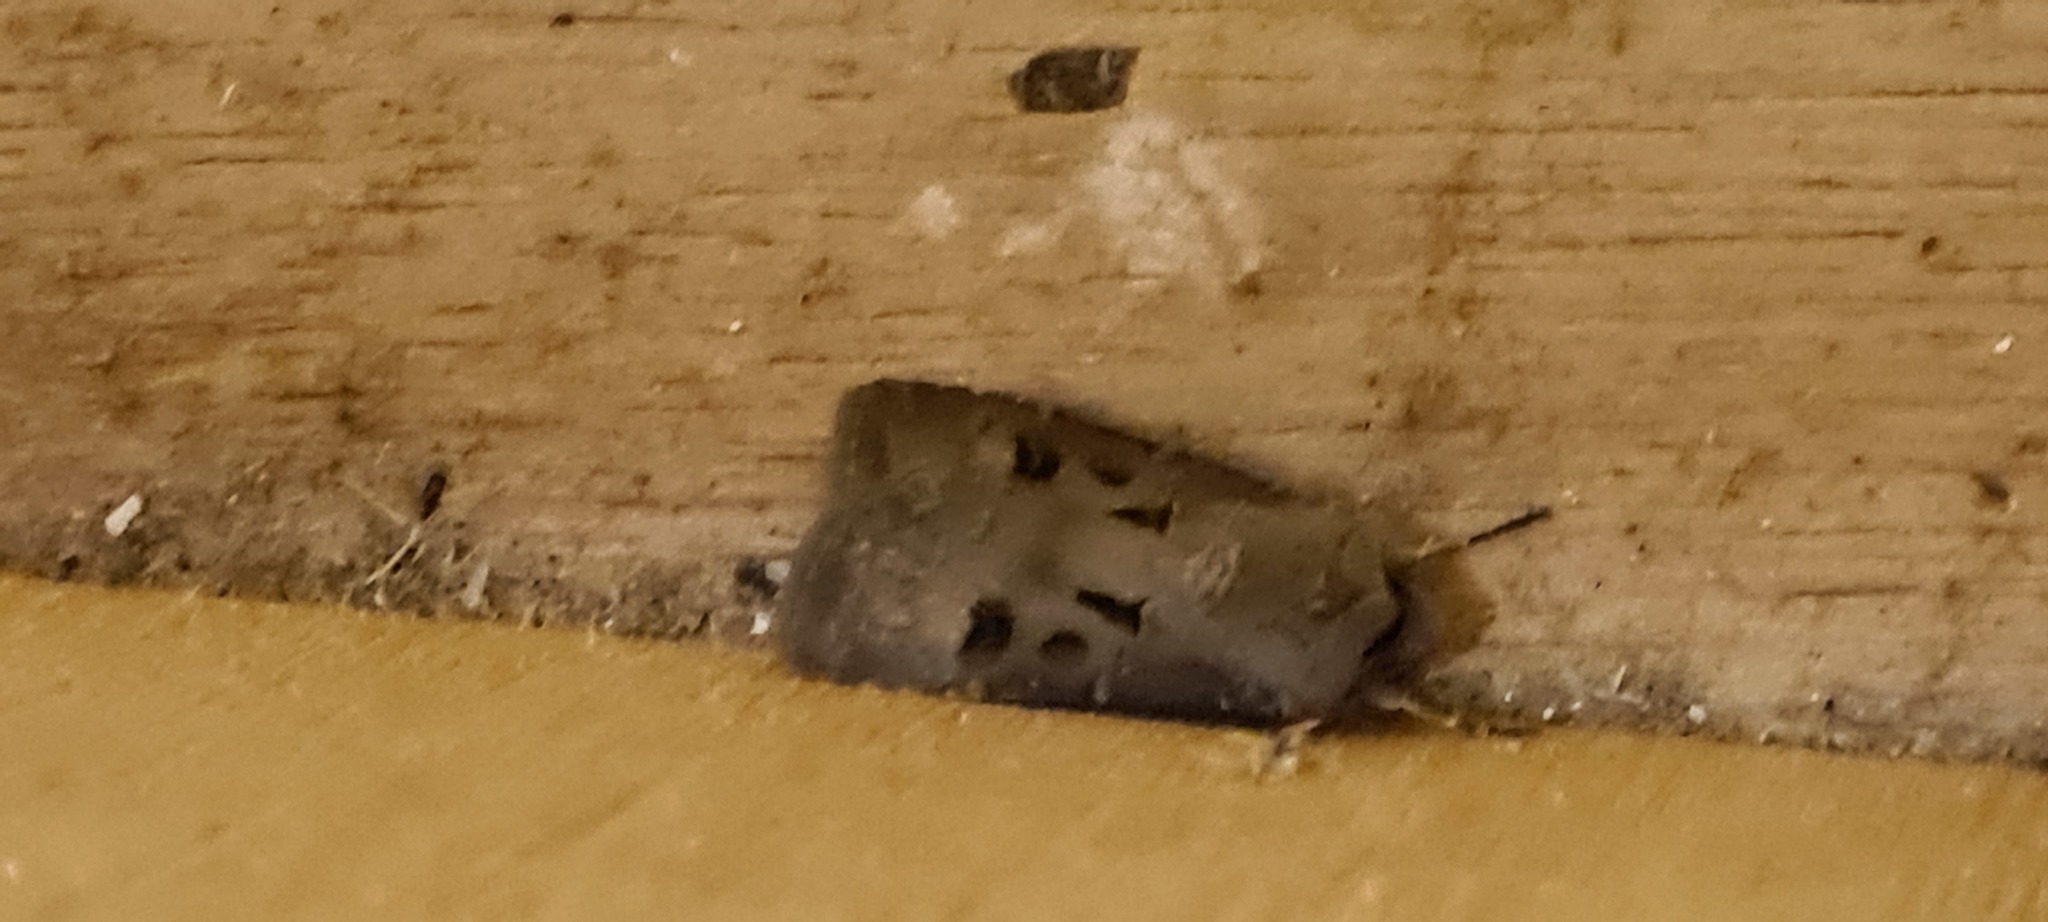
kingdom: Animalia
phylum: Arthropoda
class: Insecta
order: Lepidoptera
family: Noctuidae
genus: Agrotis
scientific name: Agrotis exclamationis
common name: Heart and dart
